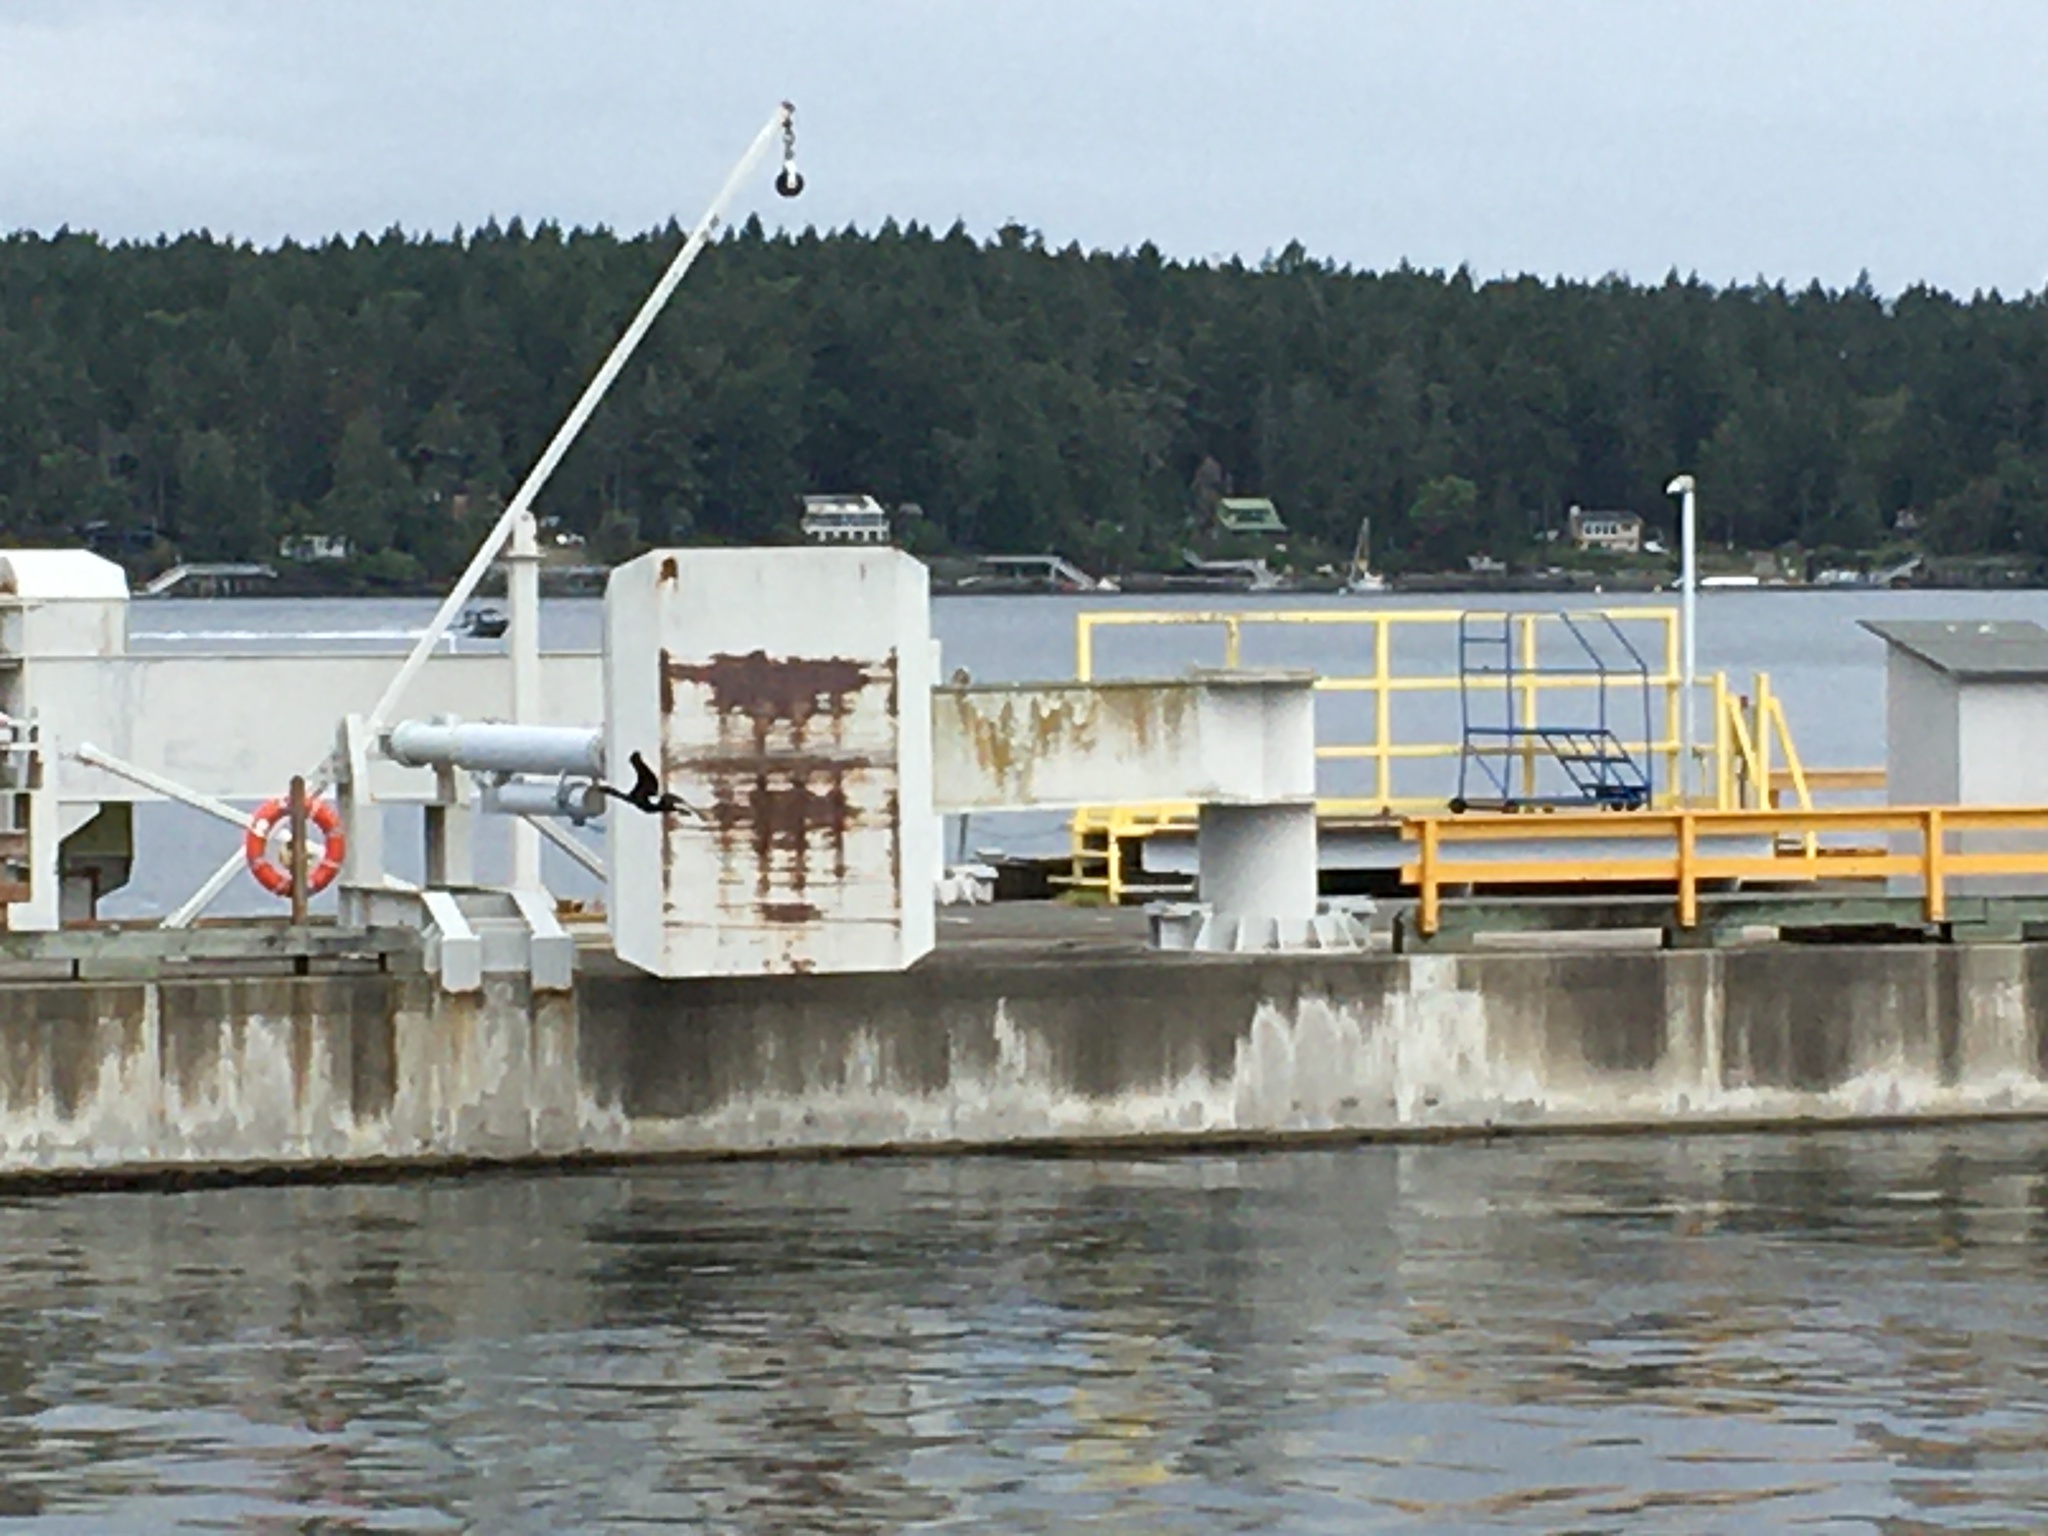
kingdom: Animalia
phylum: Chordata
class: Aves
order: Suliformes
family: Phalacrocoracidae
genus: Phalacrocorax
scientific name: Phalacrocorax pelagicus
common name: Pelagic cormorant
